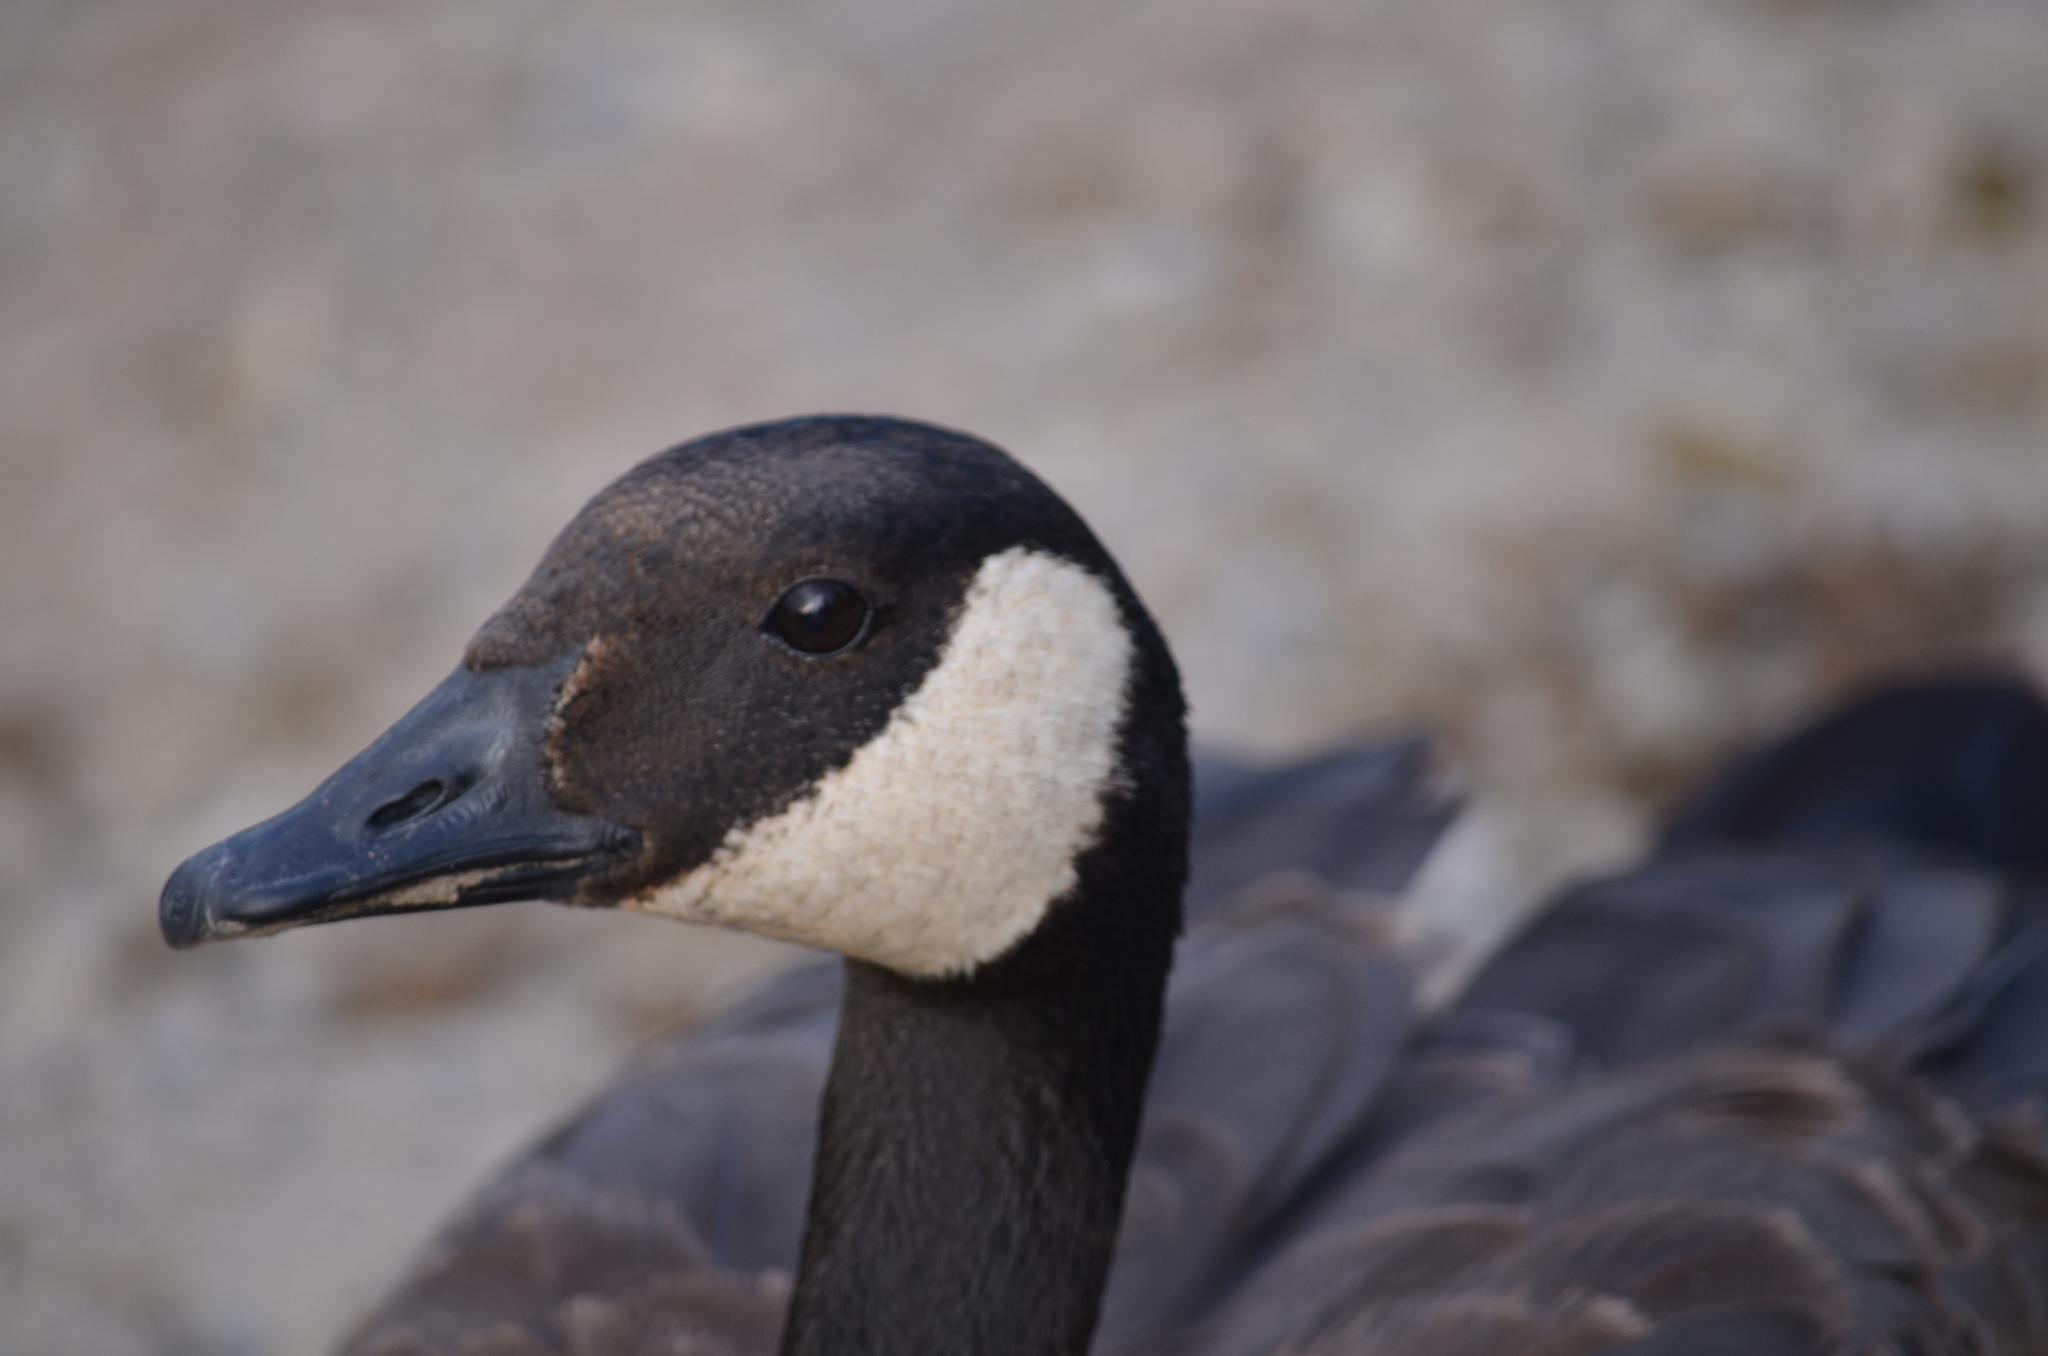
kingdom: Animalia
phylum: Chordata
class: Aves
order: Anseriformes
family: Anatidae
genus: Branta
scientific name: Branta canadensis
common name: Canada goose
